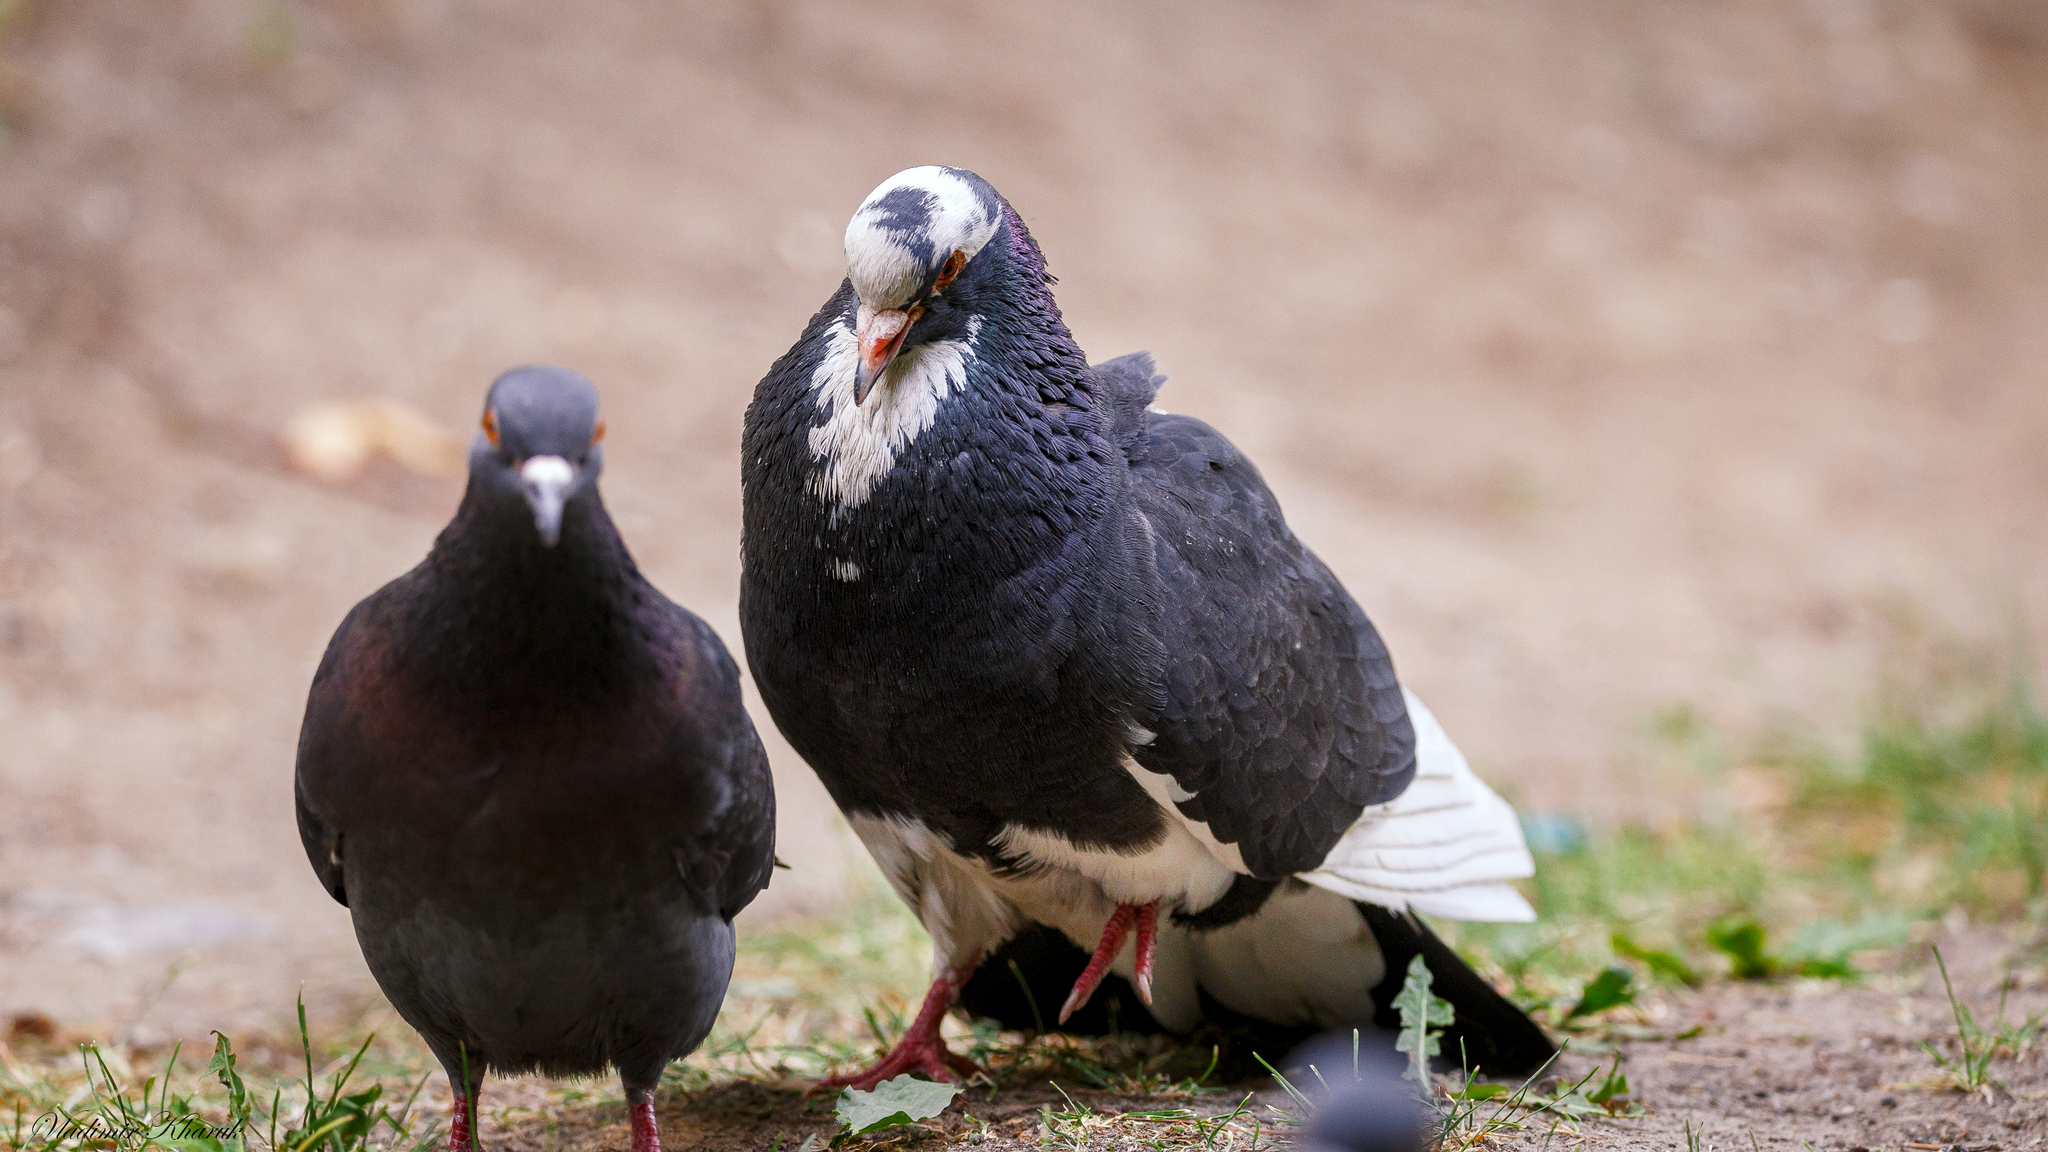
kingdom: Animalia
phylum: Chordata
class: Aves
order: Columbiformes
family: Columbidae
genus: Columba
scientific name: Columba livia
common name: Rock pigeon
